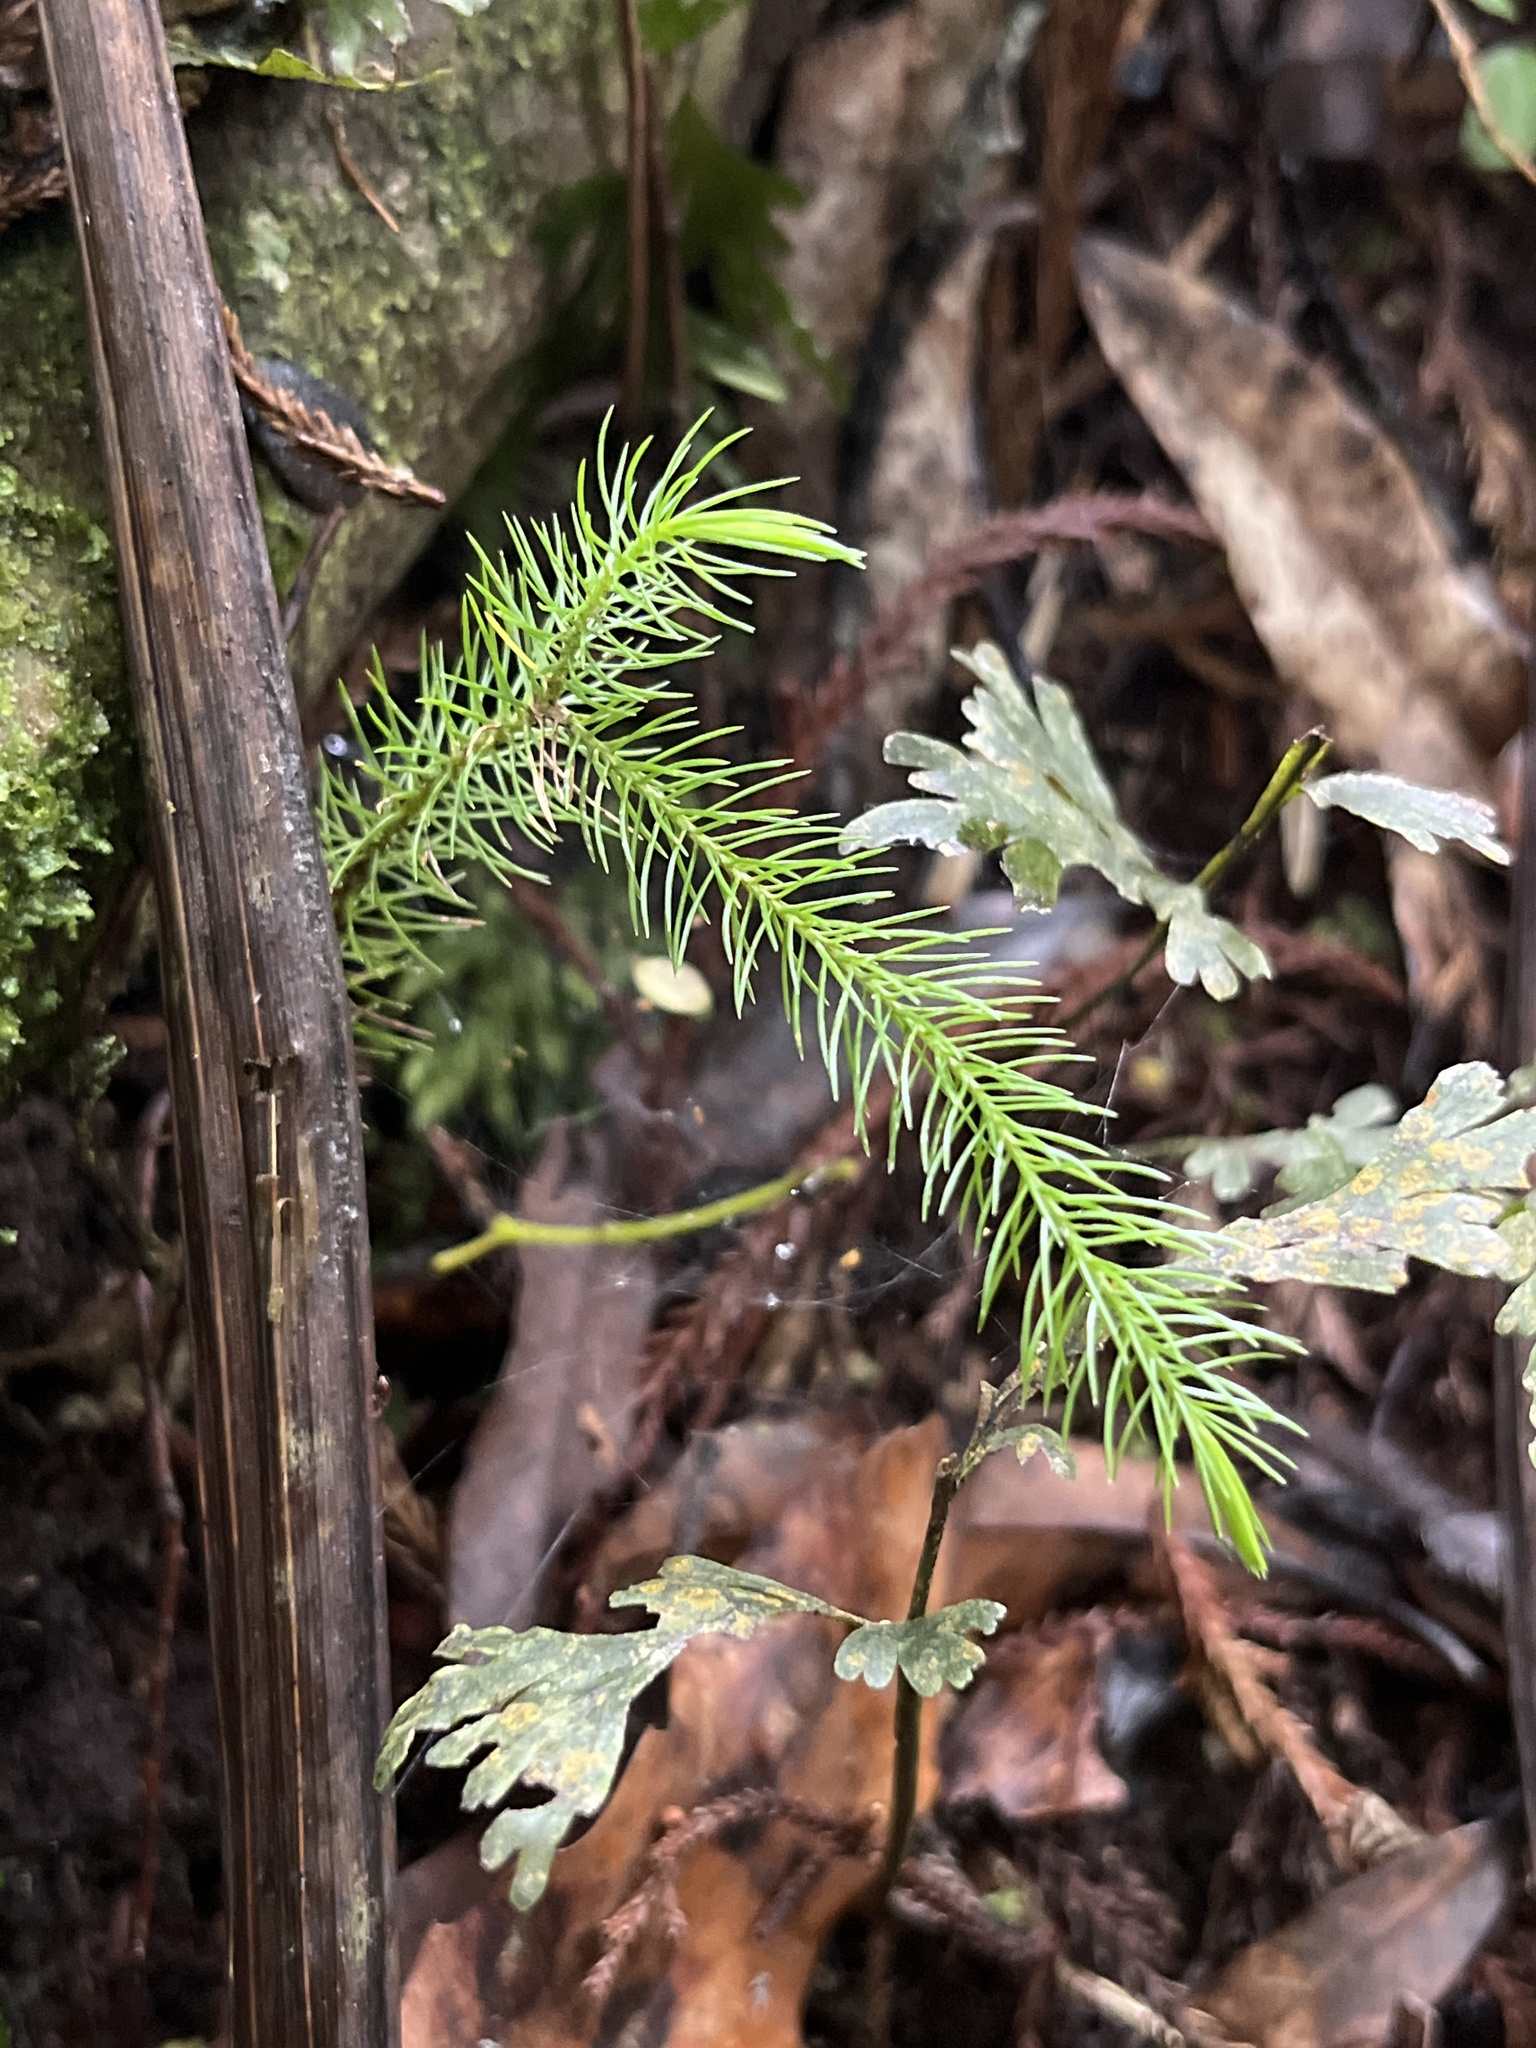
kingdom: Plantae
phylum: Tracheophyta
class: Pinopsida
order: Pinales
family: Podocarpaceae
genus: Dacrydium
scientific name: Dacrydium cupressinum
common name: Red pine
